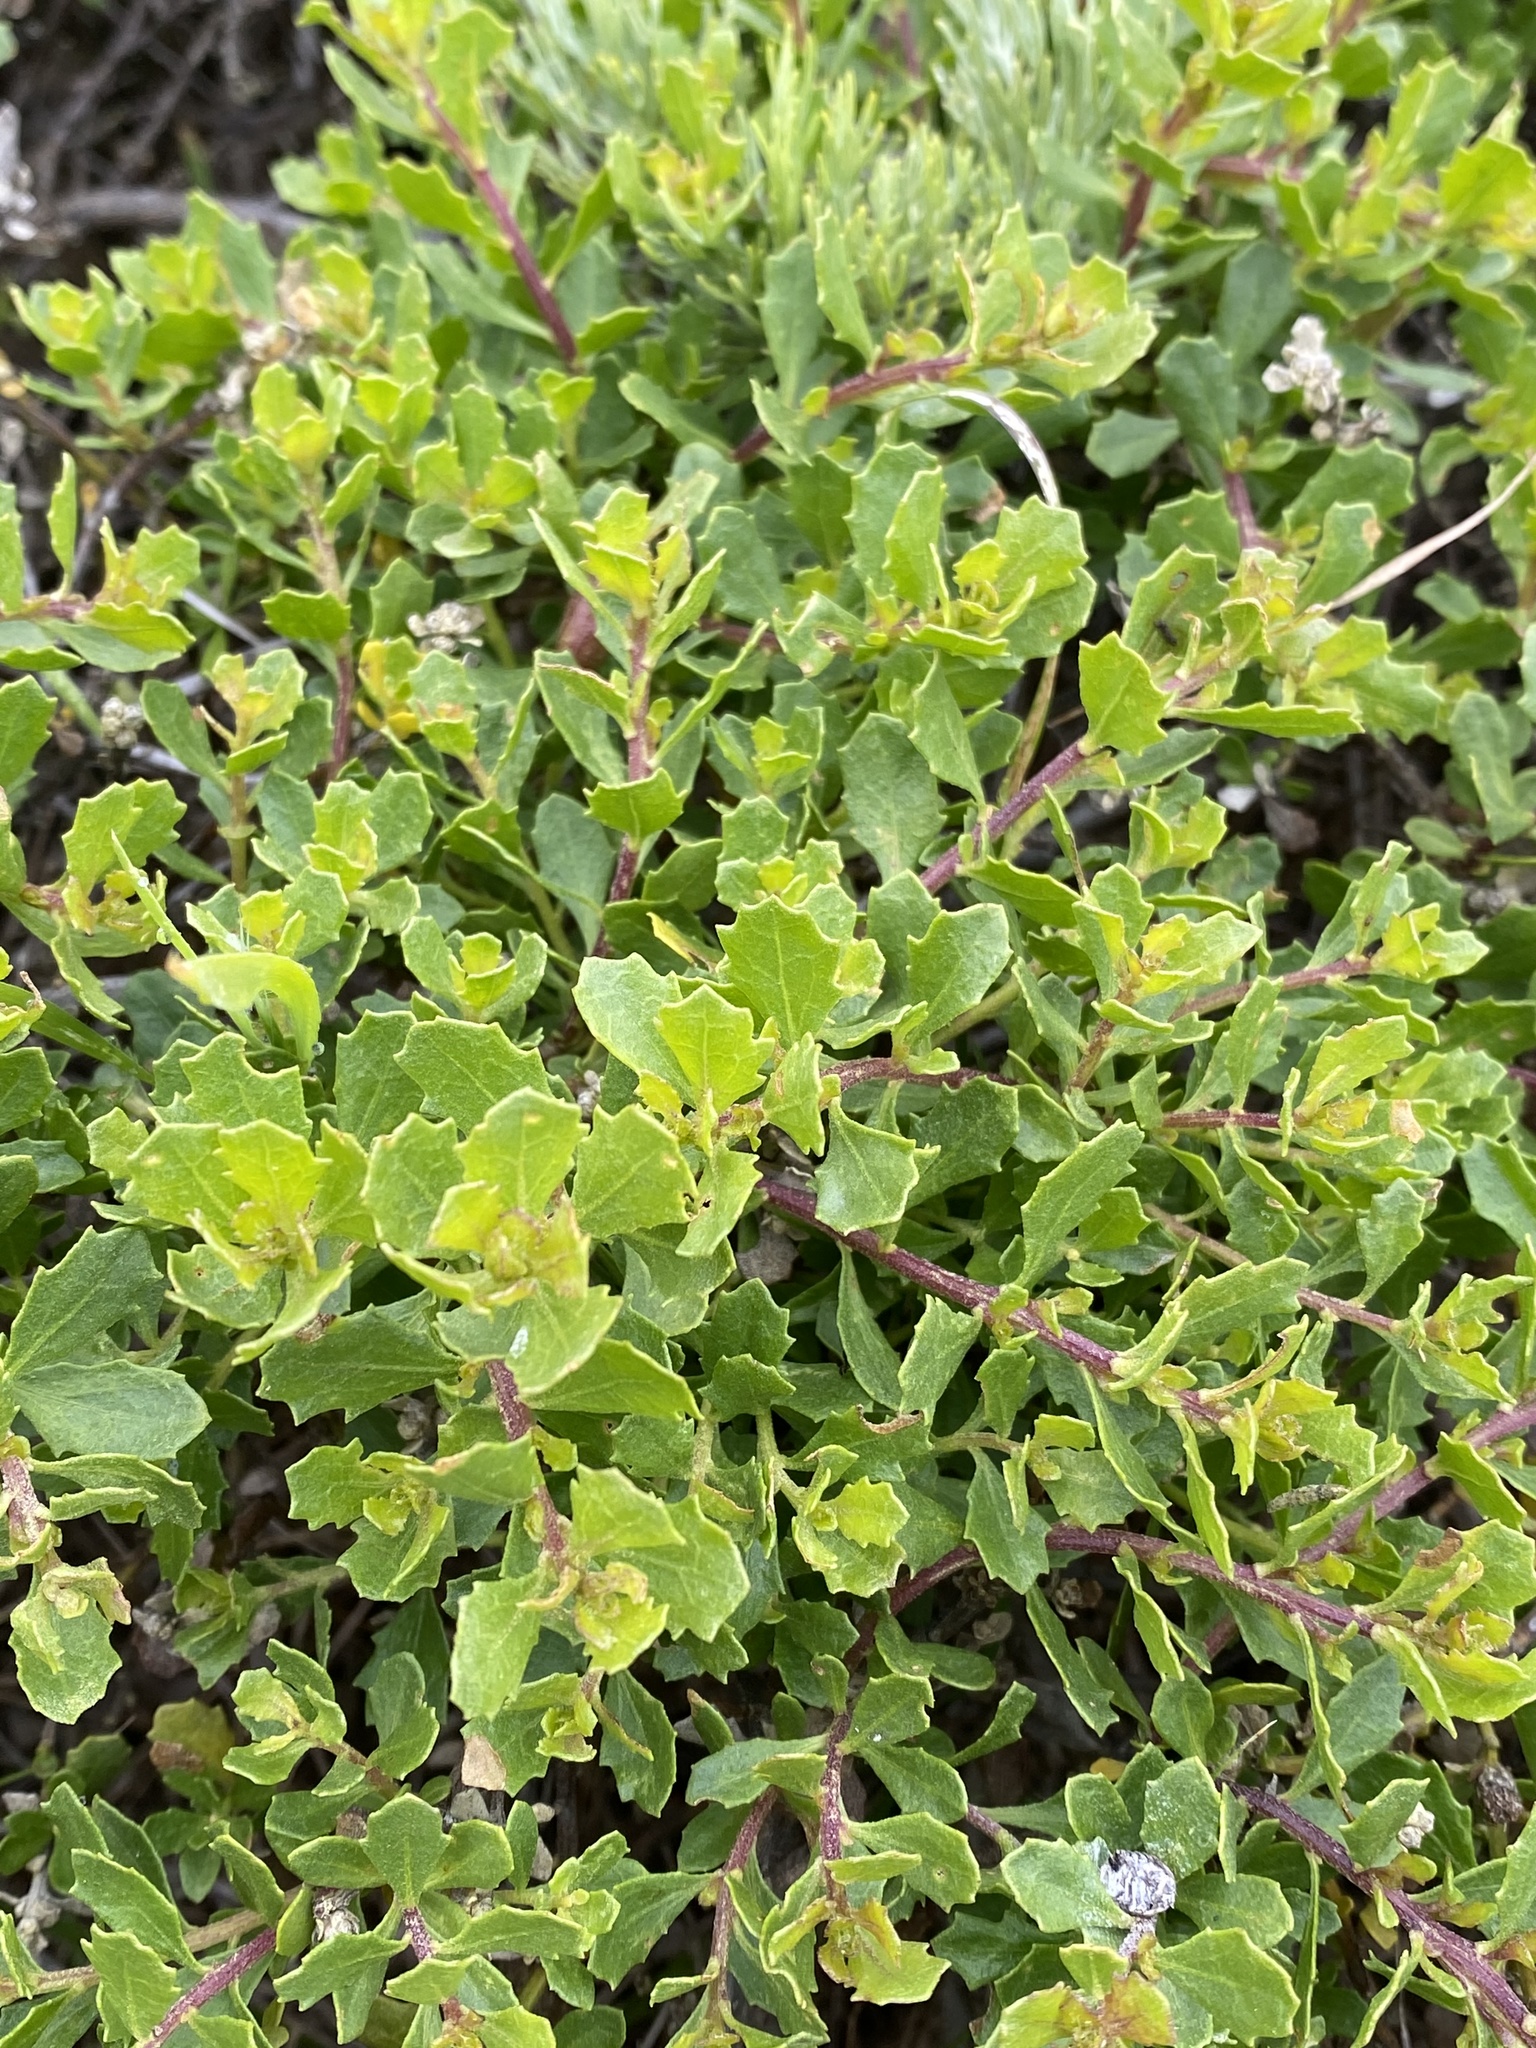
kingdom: Plantae
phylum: Tracheophyta
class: Magnoliopsida
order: Asterales
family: Asteraceae
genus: Baccharis
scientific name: Baccharis pilularis
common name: Coyotebrush
